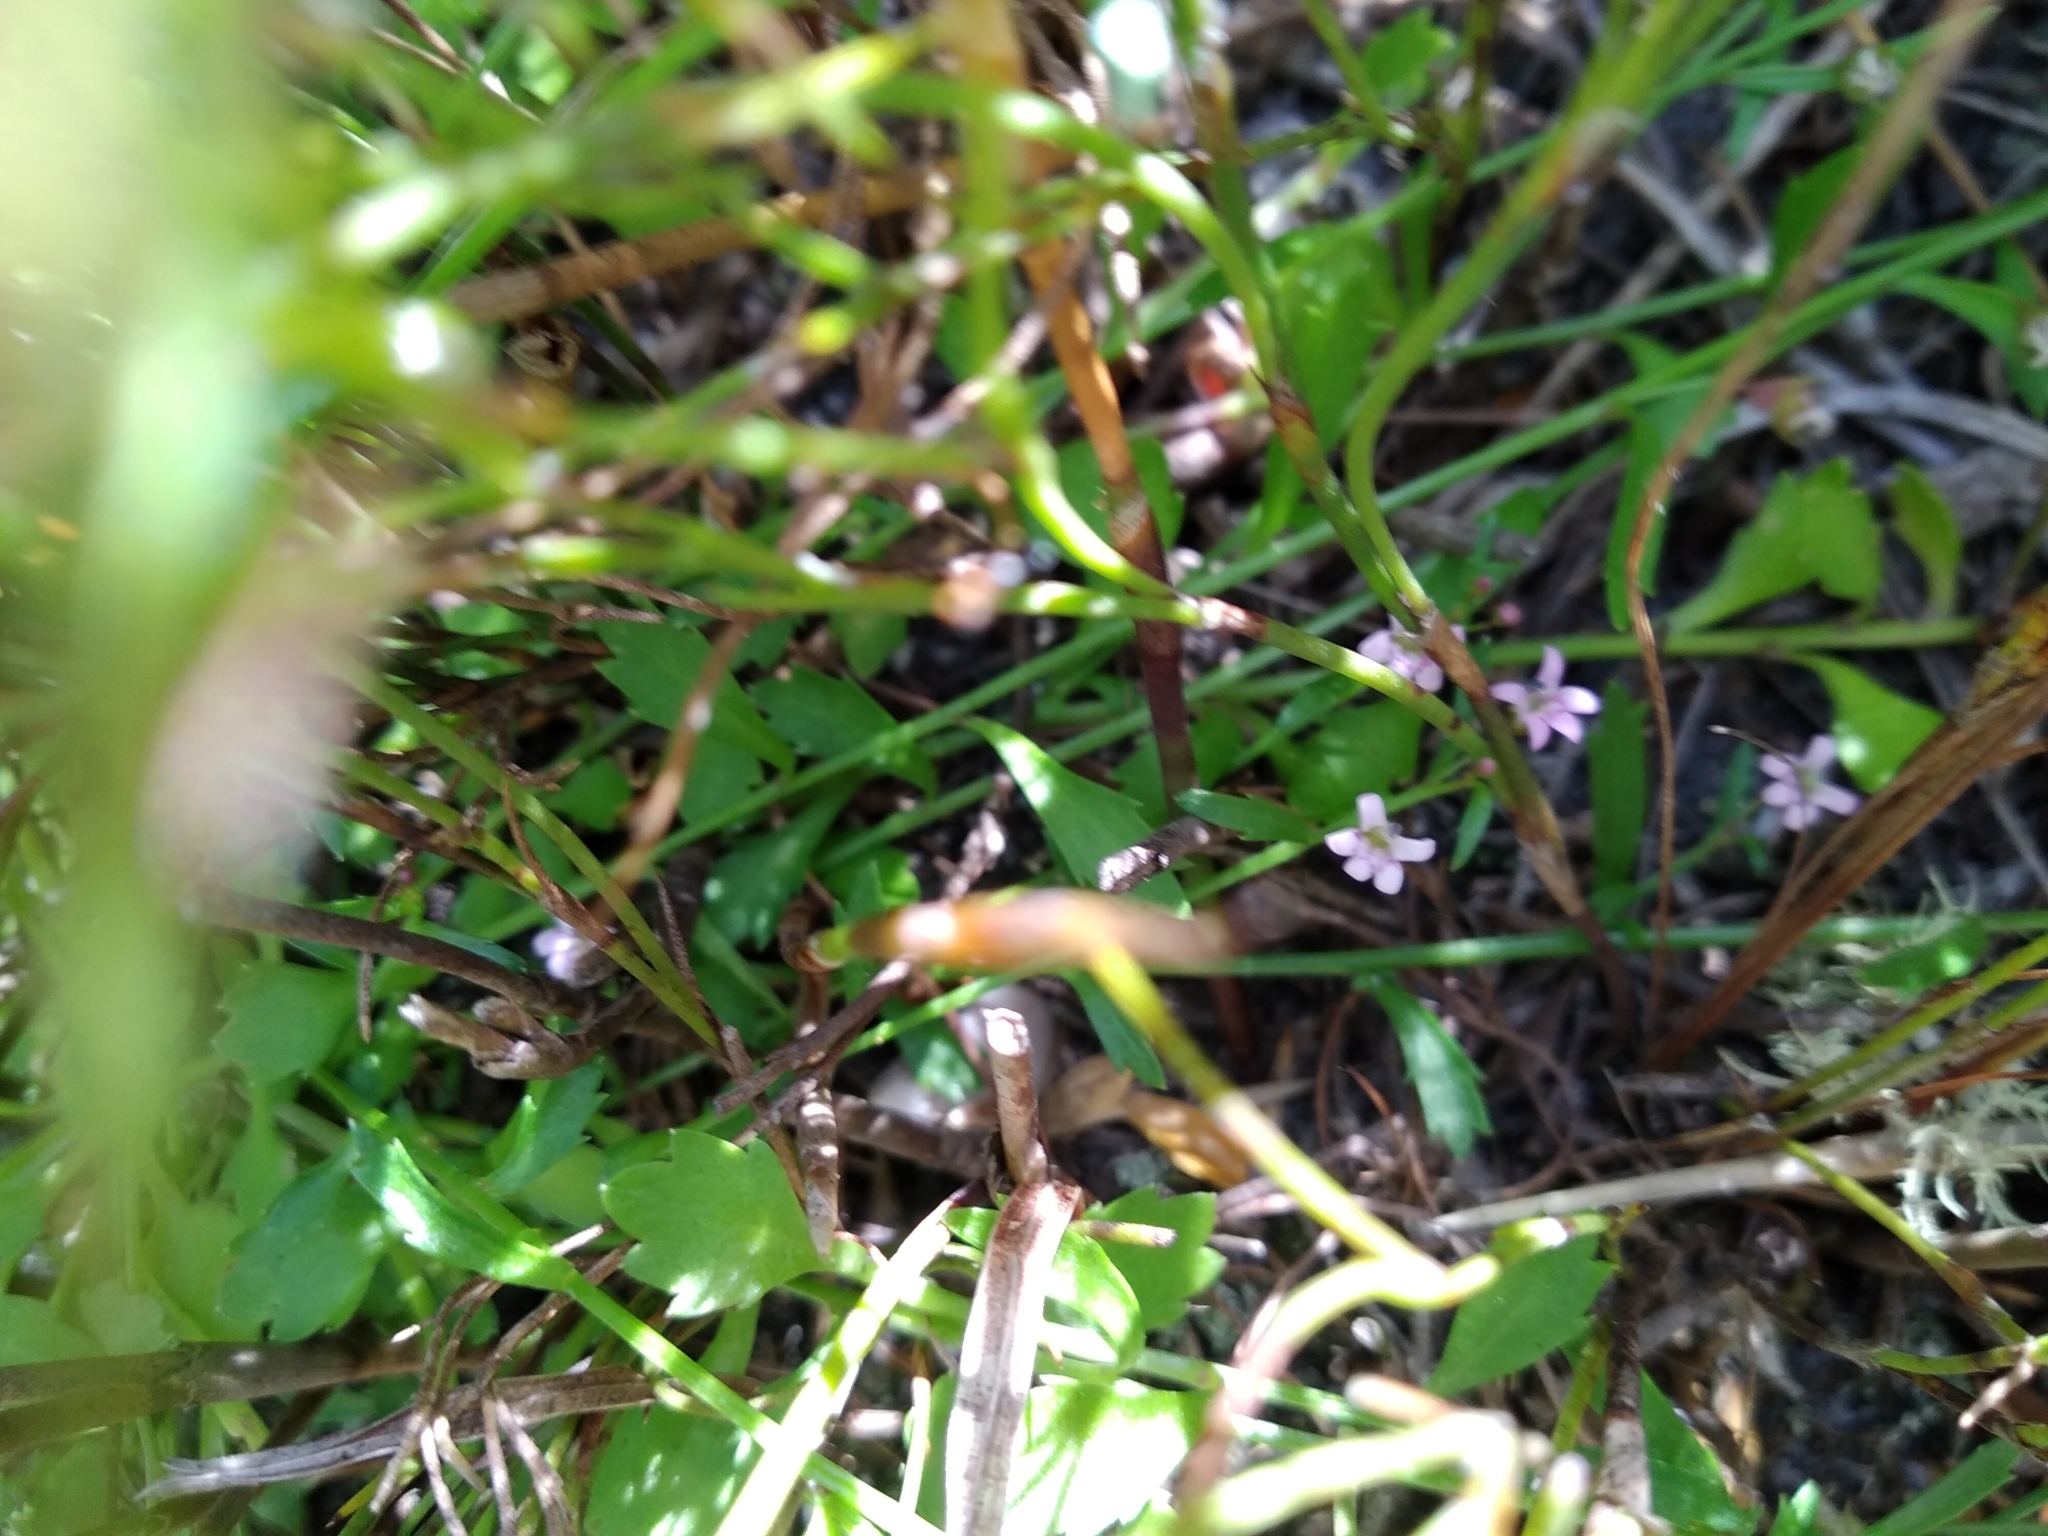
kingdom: Plantae
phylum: Tracheophyta
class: Magnoliopsida
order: Asterales
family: Campanulaceae
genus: Lobelia
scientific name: Lobelia eckloniana
